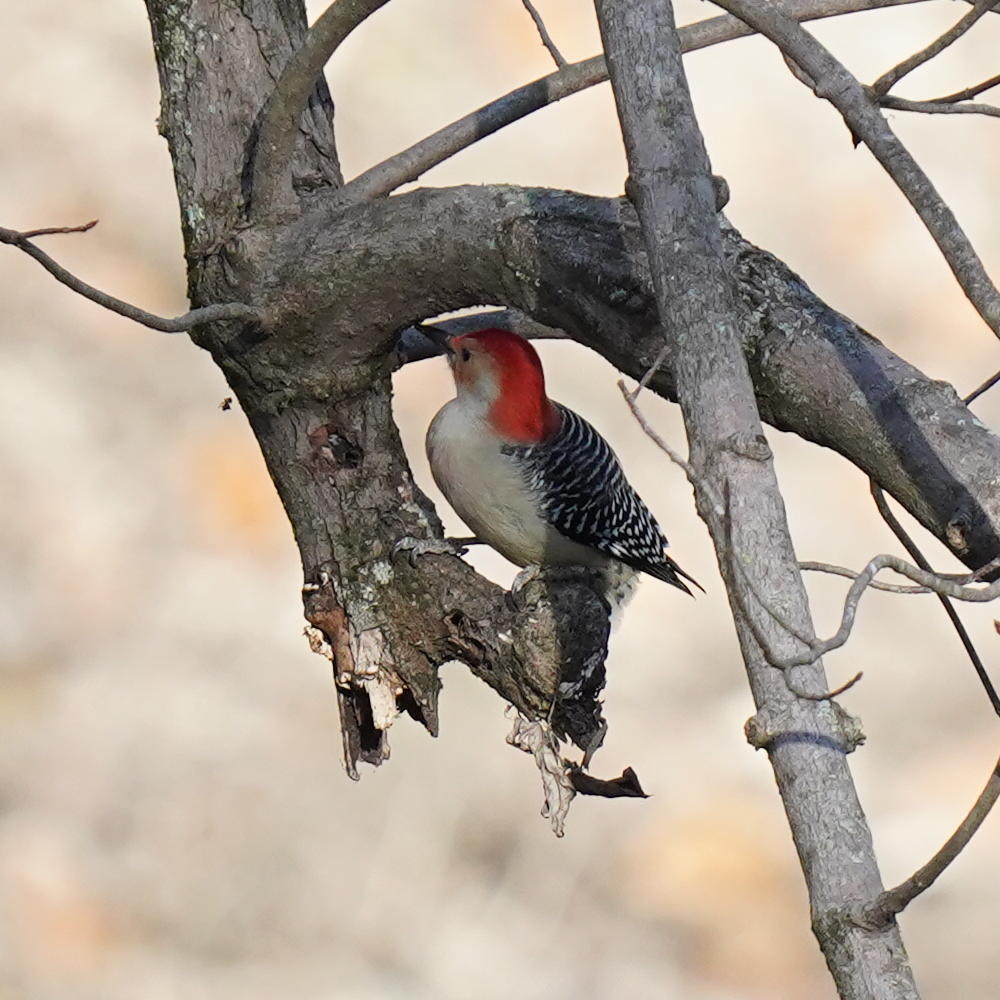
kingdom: Animalia
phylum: Chordata
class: Aves
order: Piciformes
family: Picidae
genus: Melanerpes
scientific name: Melanerpes carolinus
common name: Red-bellied woodpecker
